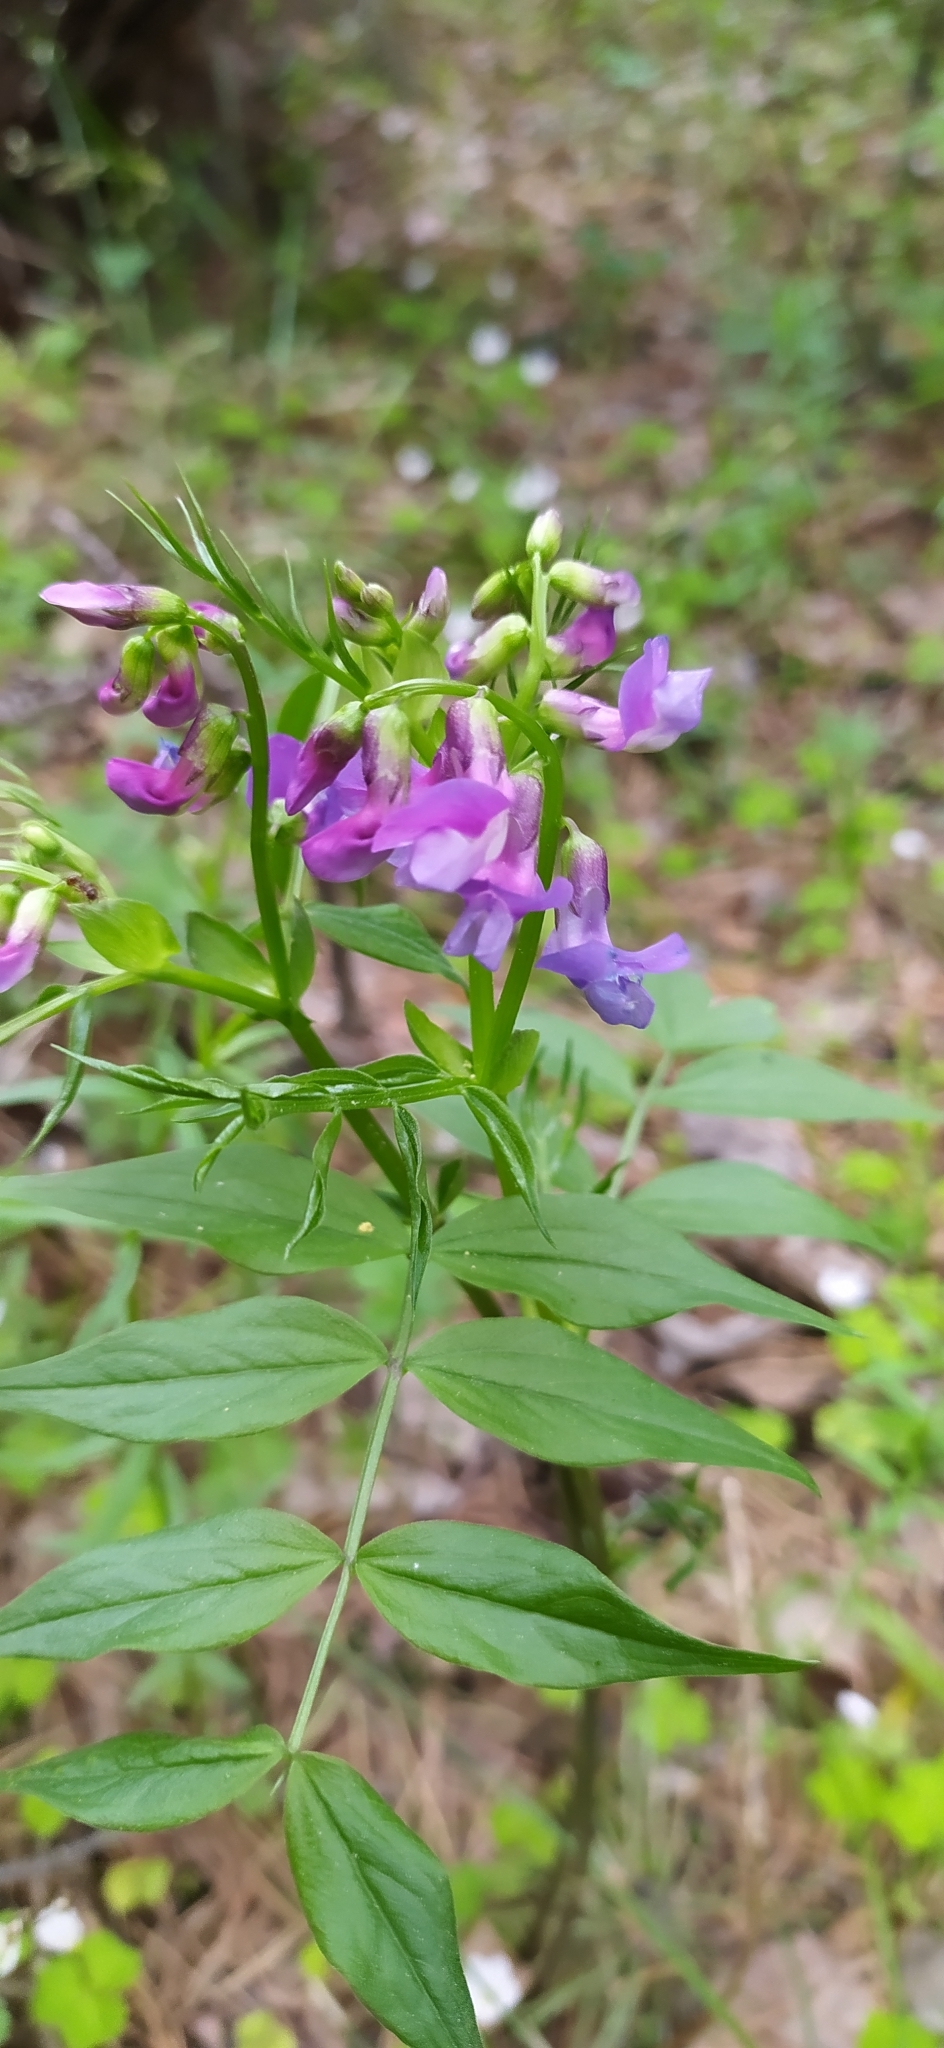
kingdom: Plantae
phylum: Tracheophyta
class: Magnoliopsida
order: Fabales
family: Fabaceae
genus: Lathyrus
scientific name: Lathyrus vernus
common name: Spring pea
